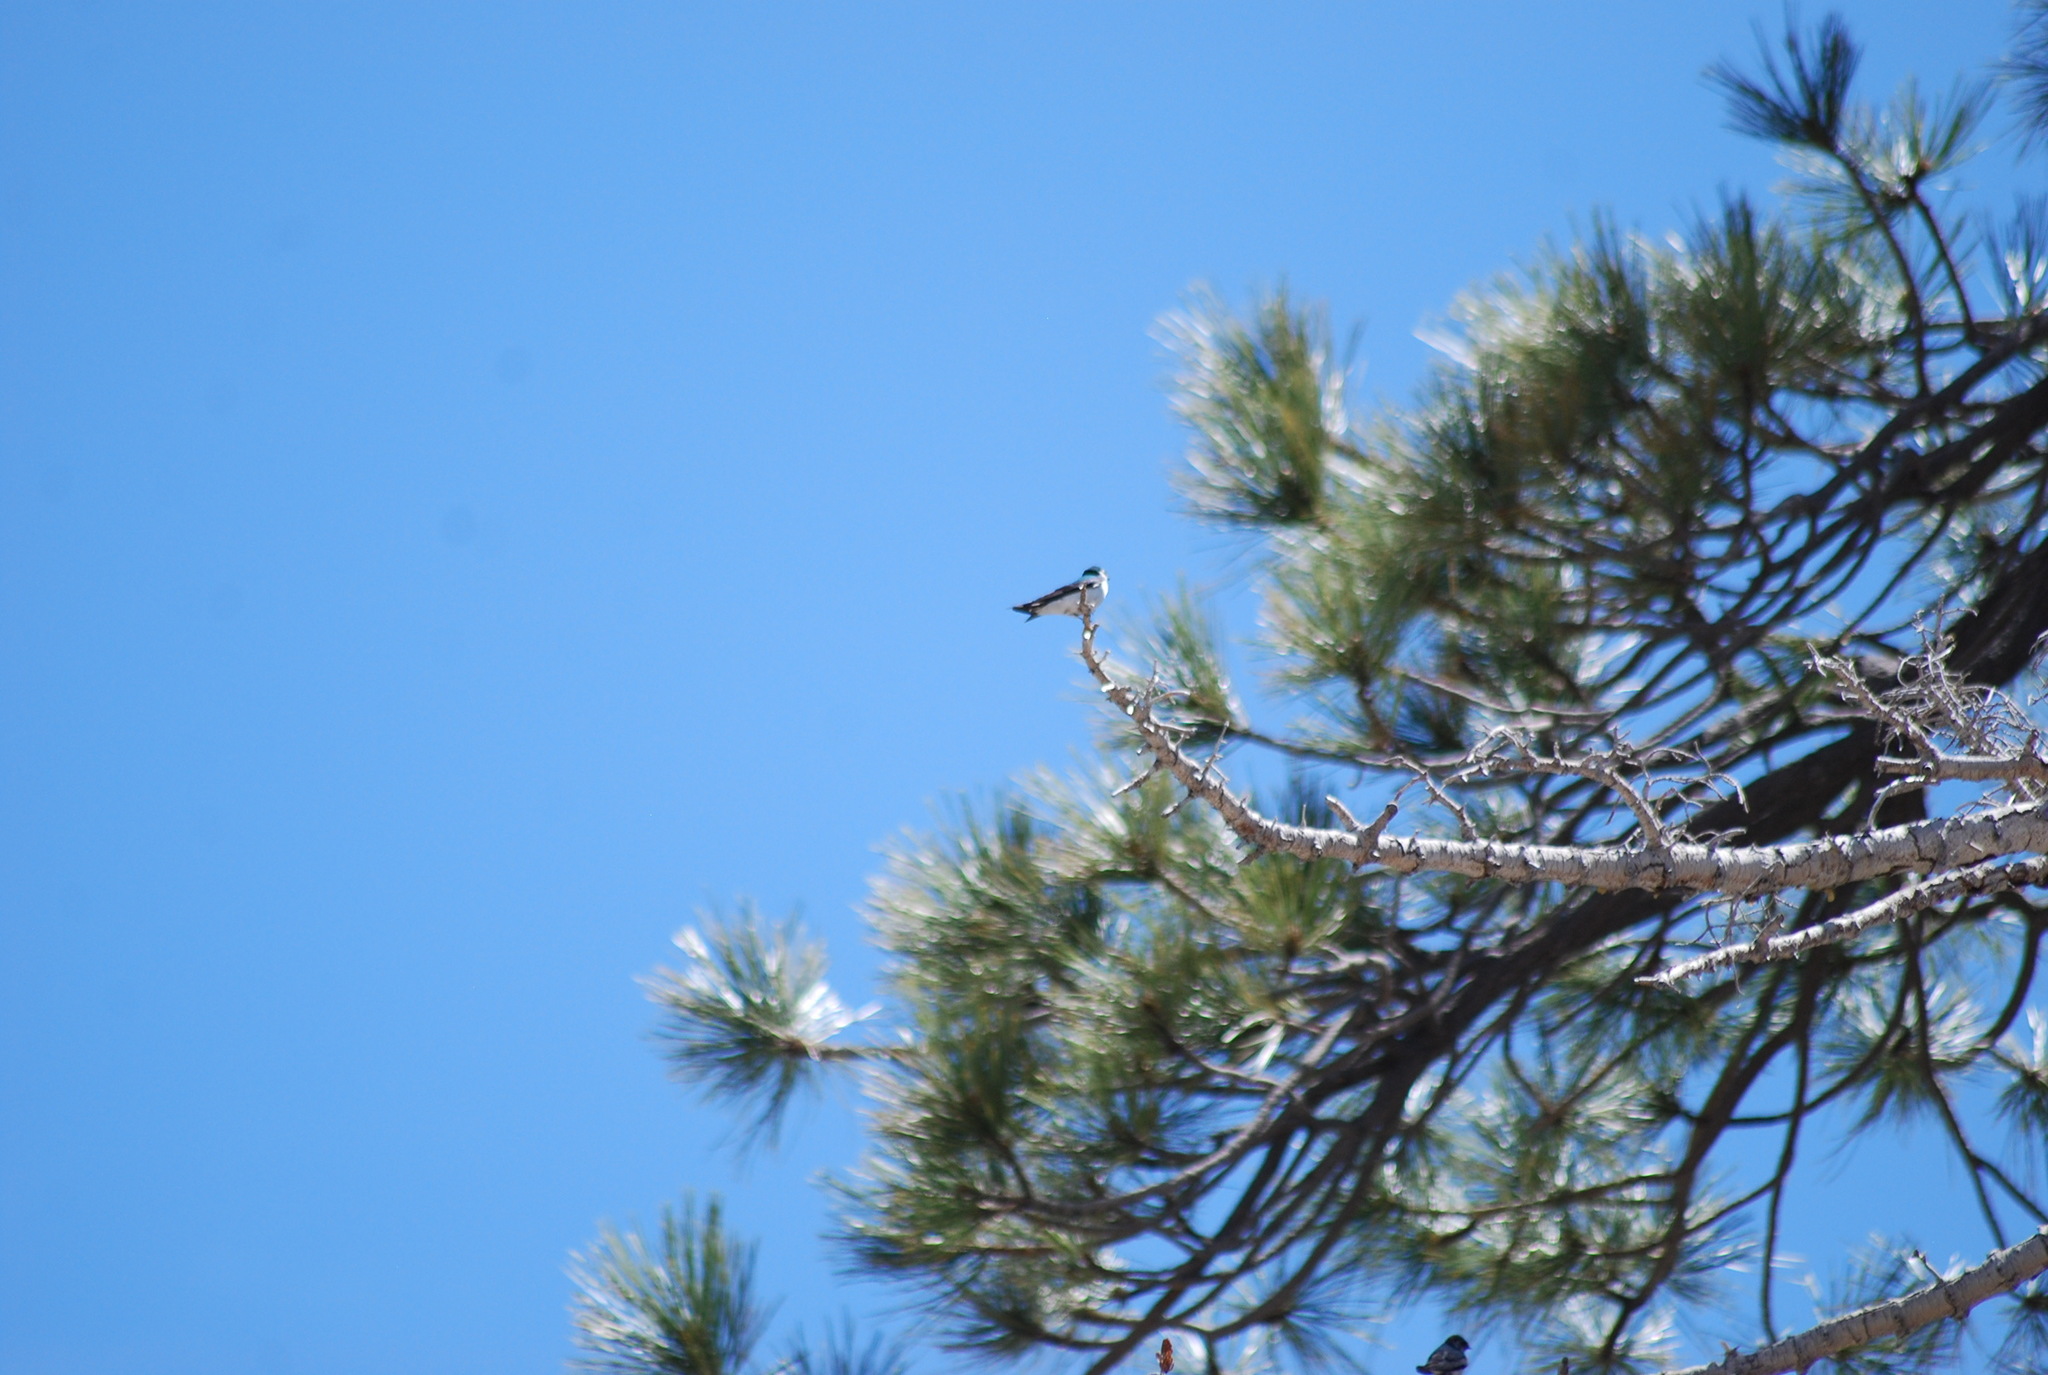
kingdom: Animalia
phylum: Chordata
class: Aves
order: Passeriformes
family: Hirundinidae
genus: Tachycineta
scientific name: Tachycineta thalassina
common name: Violet-green swallow
